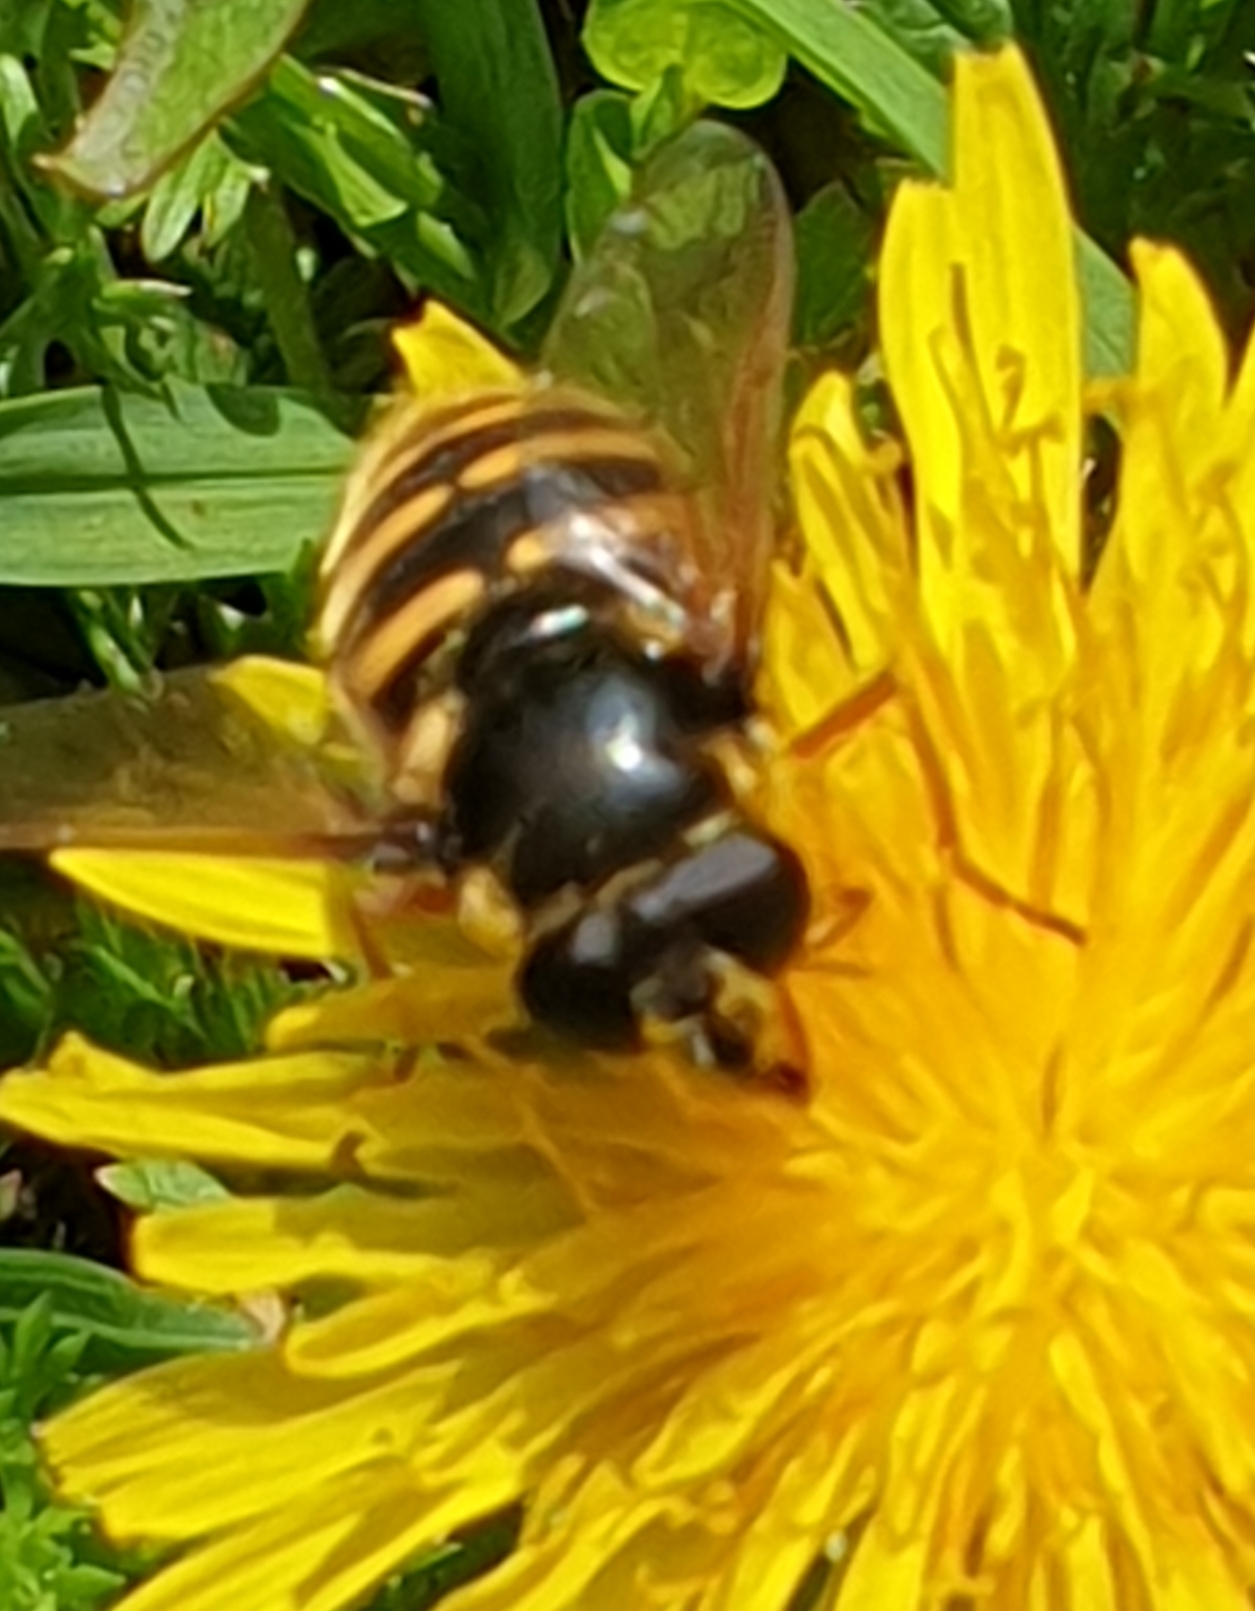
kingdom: Animalia
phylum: Arthropoda
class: Insecta
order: Diptera
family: Syrphidae
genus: Sericomyia
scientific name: Sericomyia silentis
